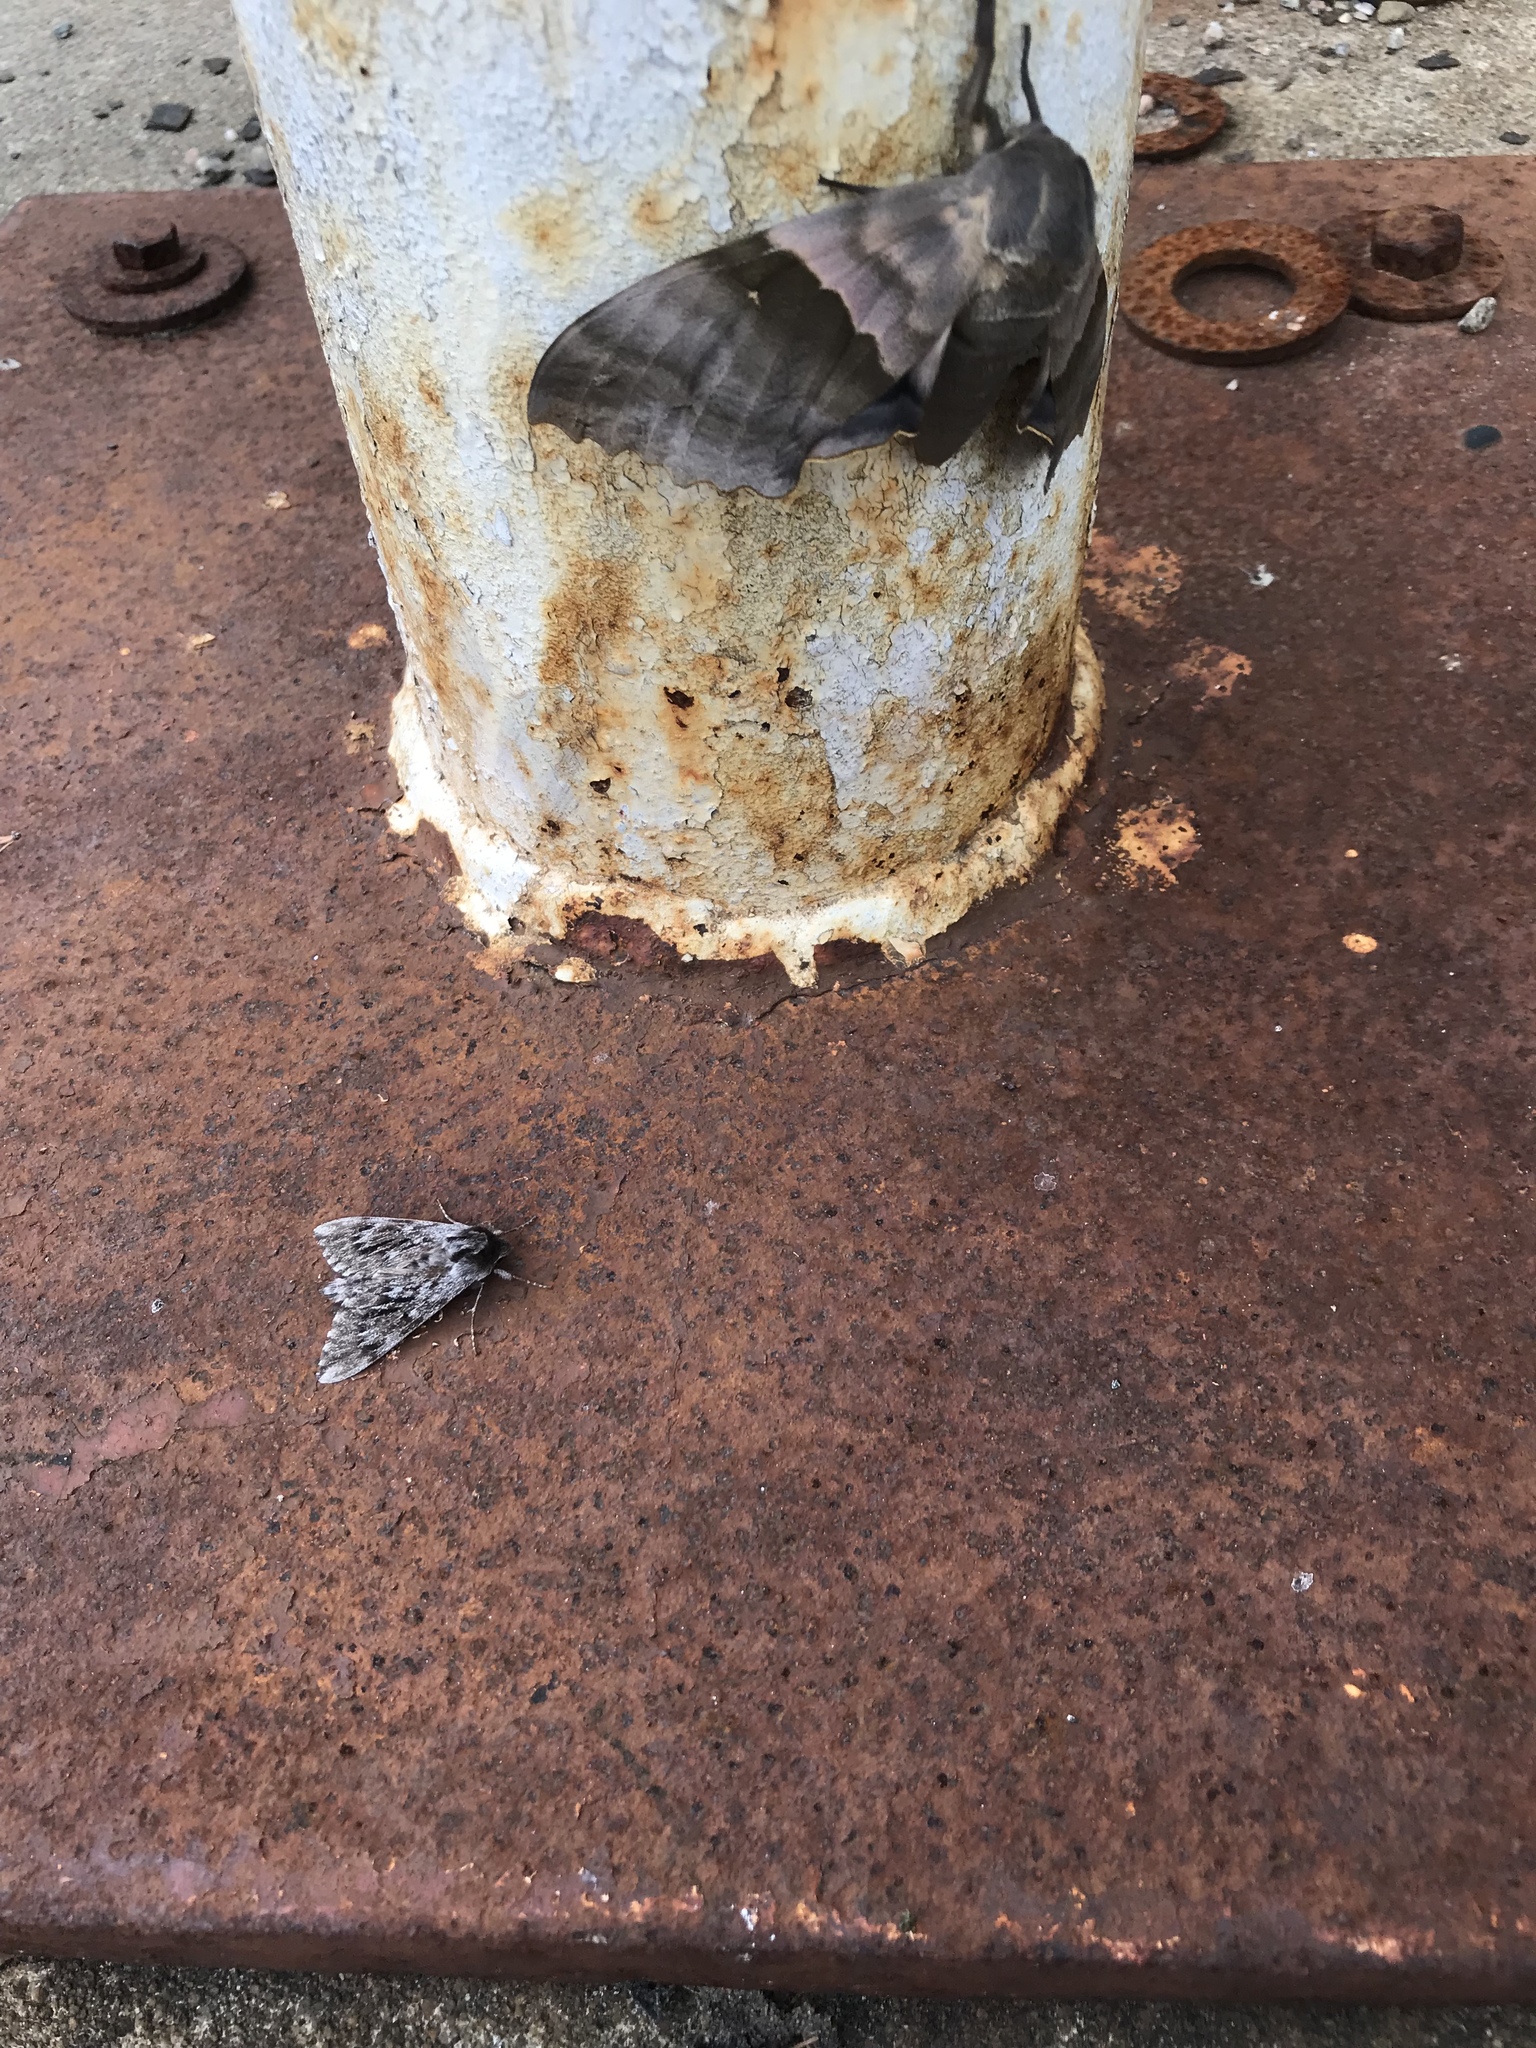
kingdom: Animalia
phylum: Arthropoda
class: Insecta
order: Lepidoptera
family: Sphingidae
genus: Lapara
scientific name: Lapara bombycoides
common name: Northern pine sphinx
